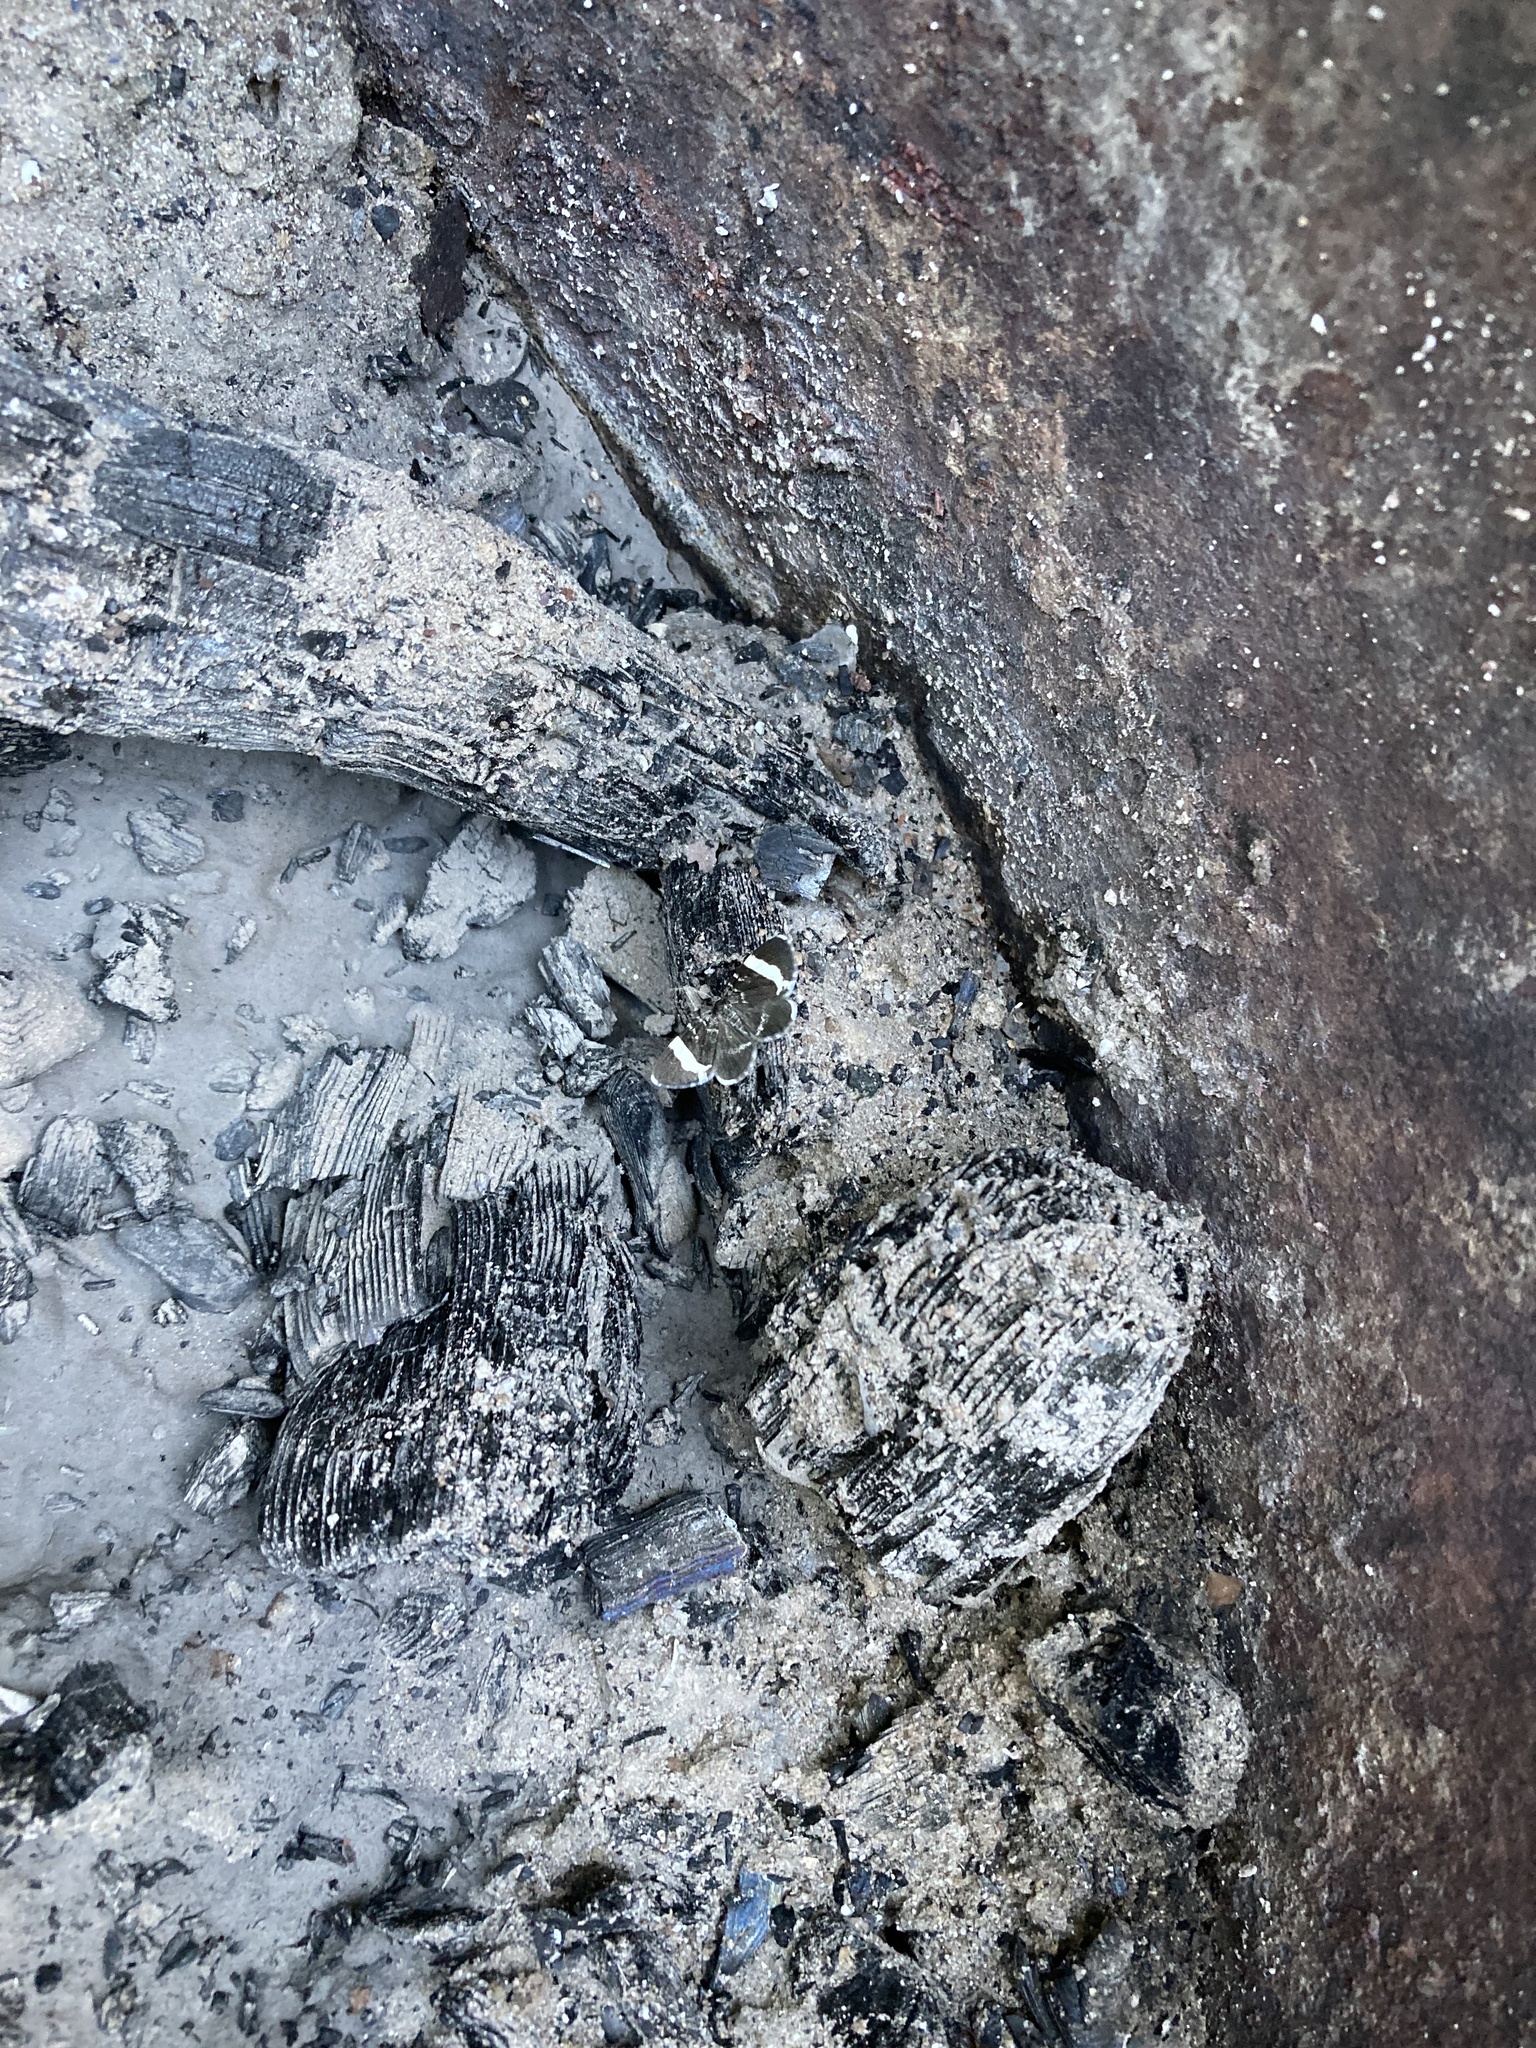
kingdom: Animalia
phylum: Arthropoda
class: Insecta
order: Lepidoptera
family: Geometridae
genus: Trichodezia
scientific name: Trichodezia albovittata
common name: White striped black
